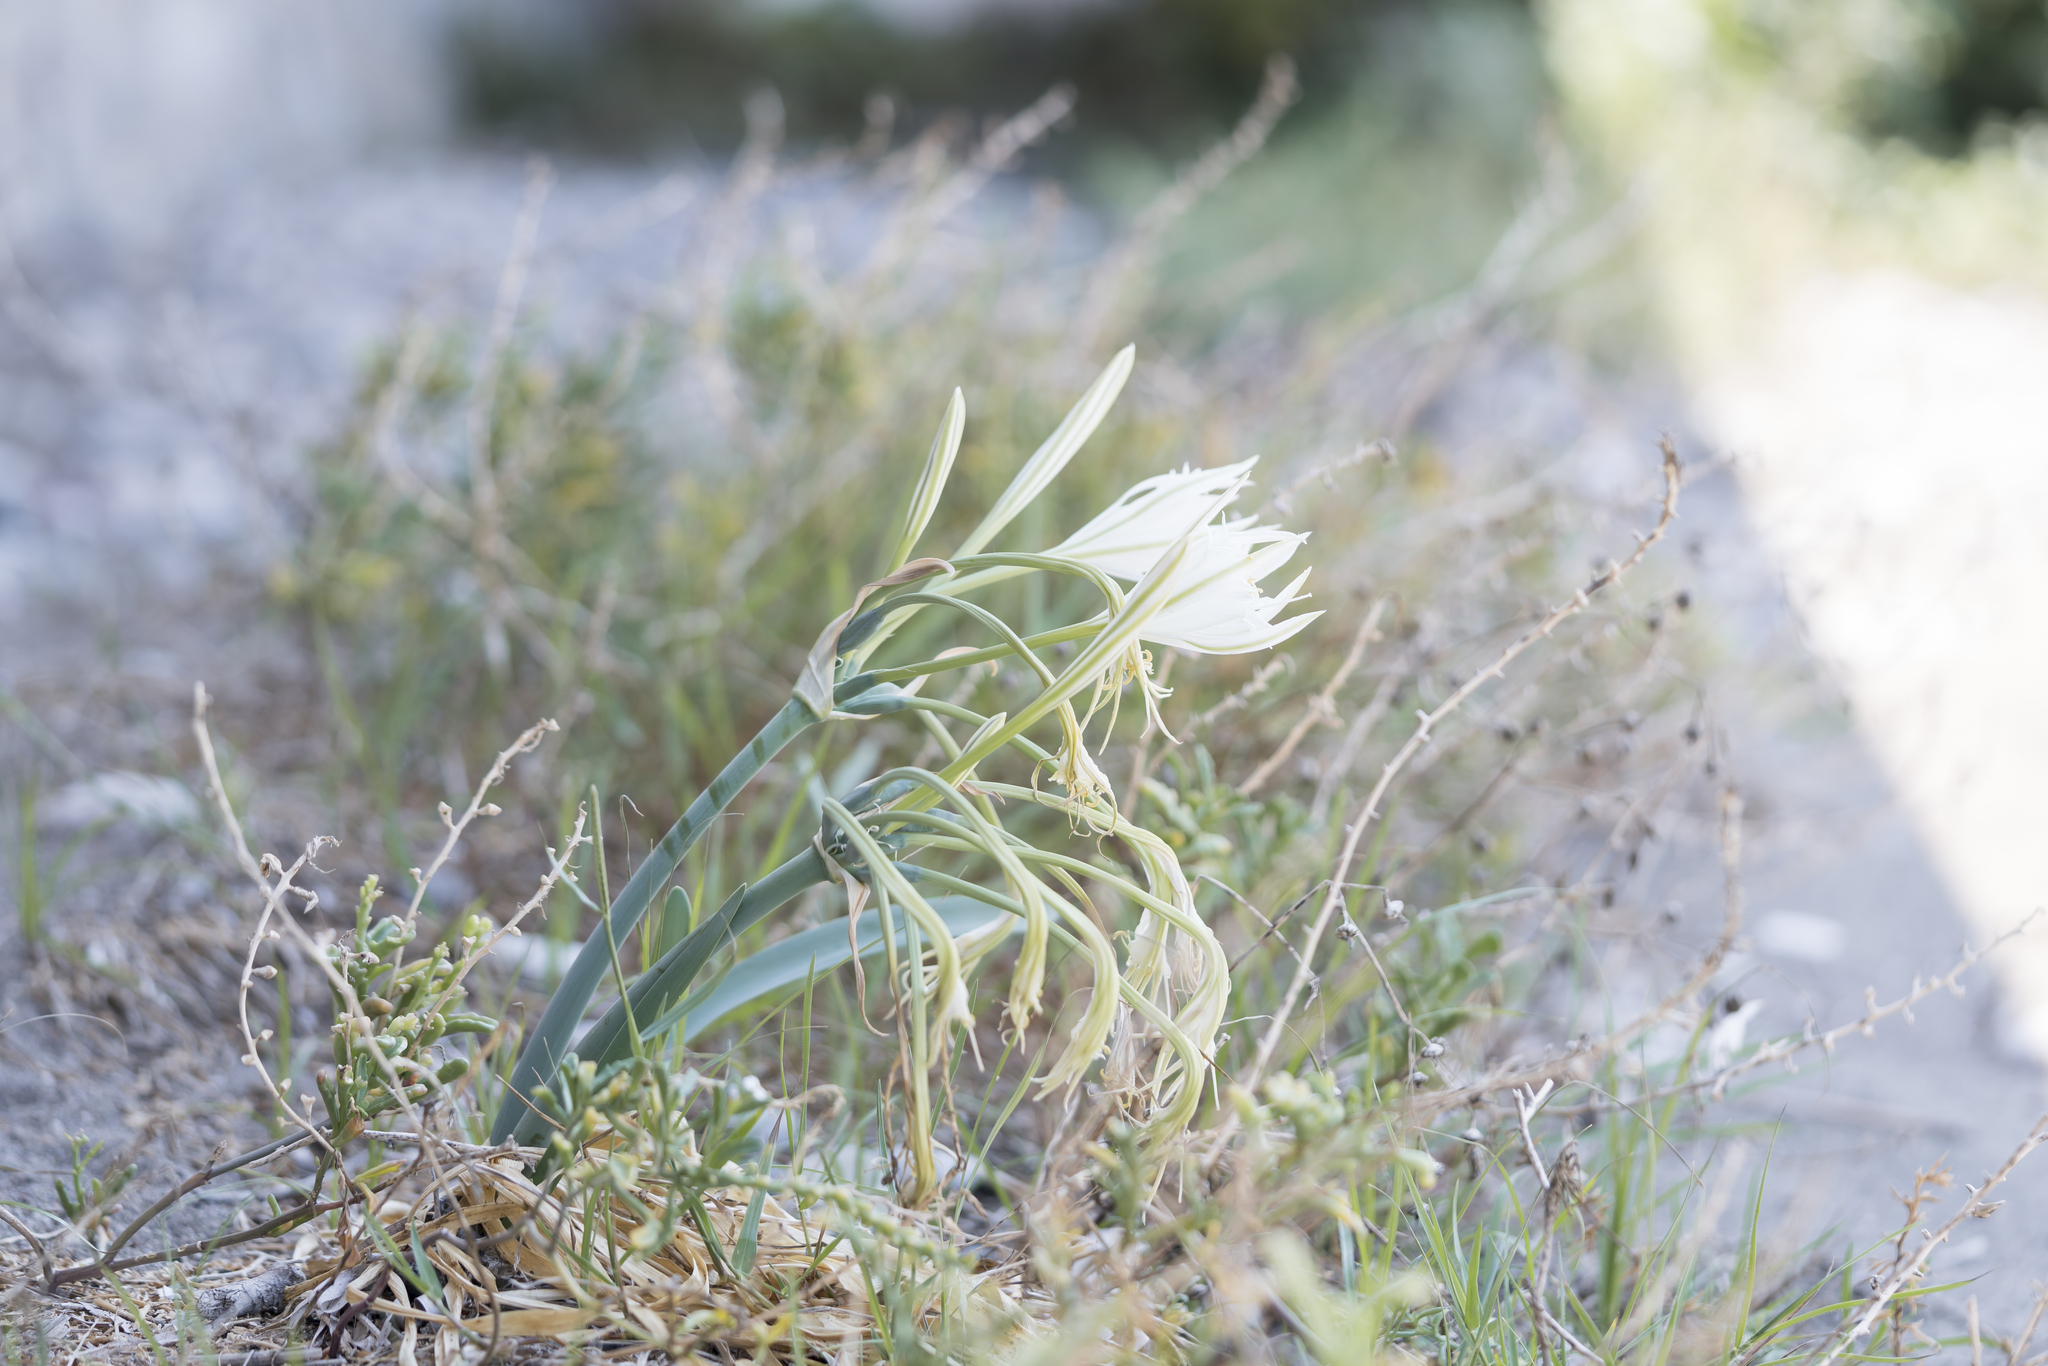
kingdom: Plantae
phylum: Tracheophyta
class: Liliopsida
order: Asparagales
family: Amaryllidaceae
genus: Pancratium
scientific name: Pancratium maritimum
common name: Sea-daffodil
